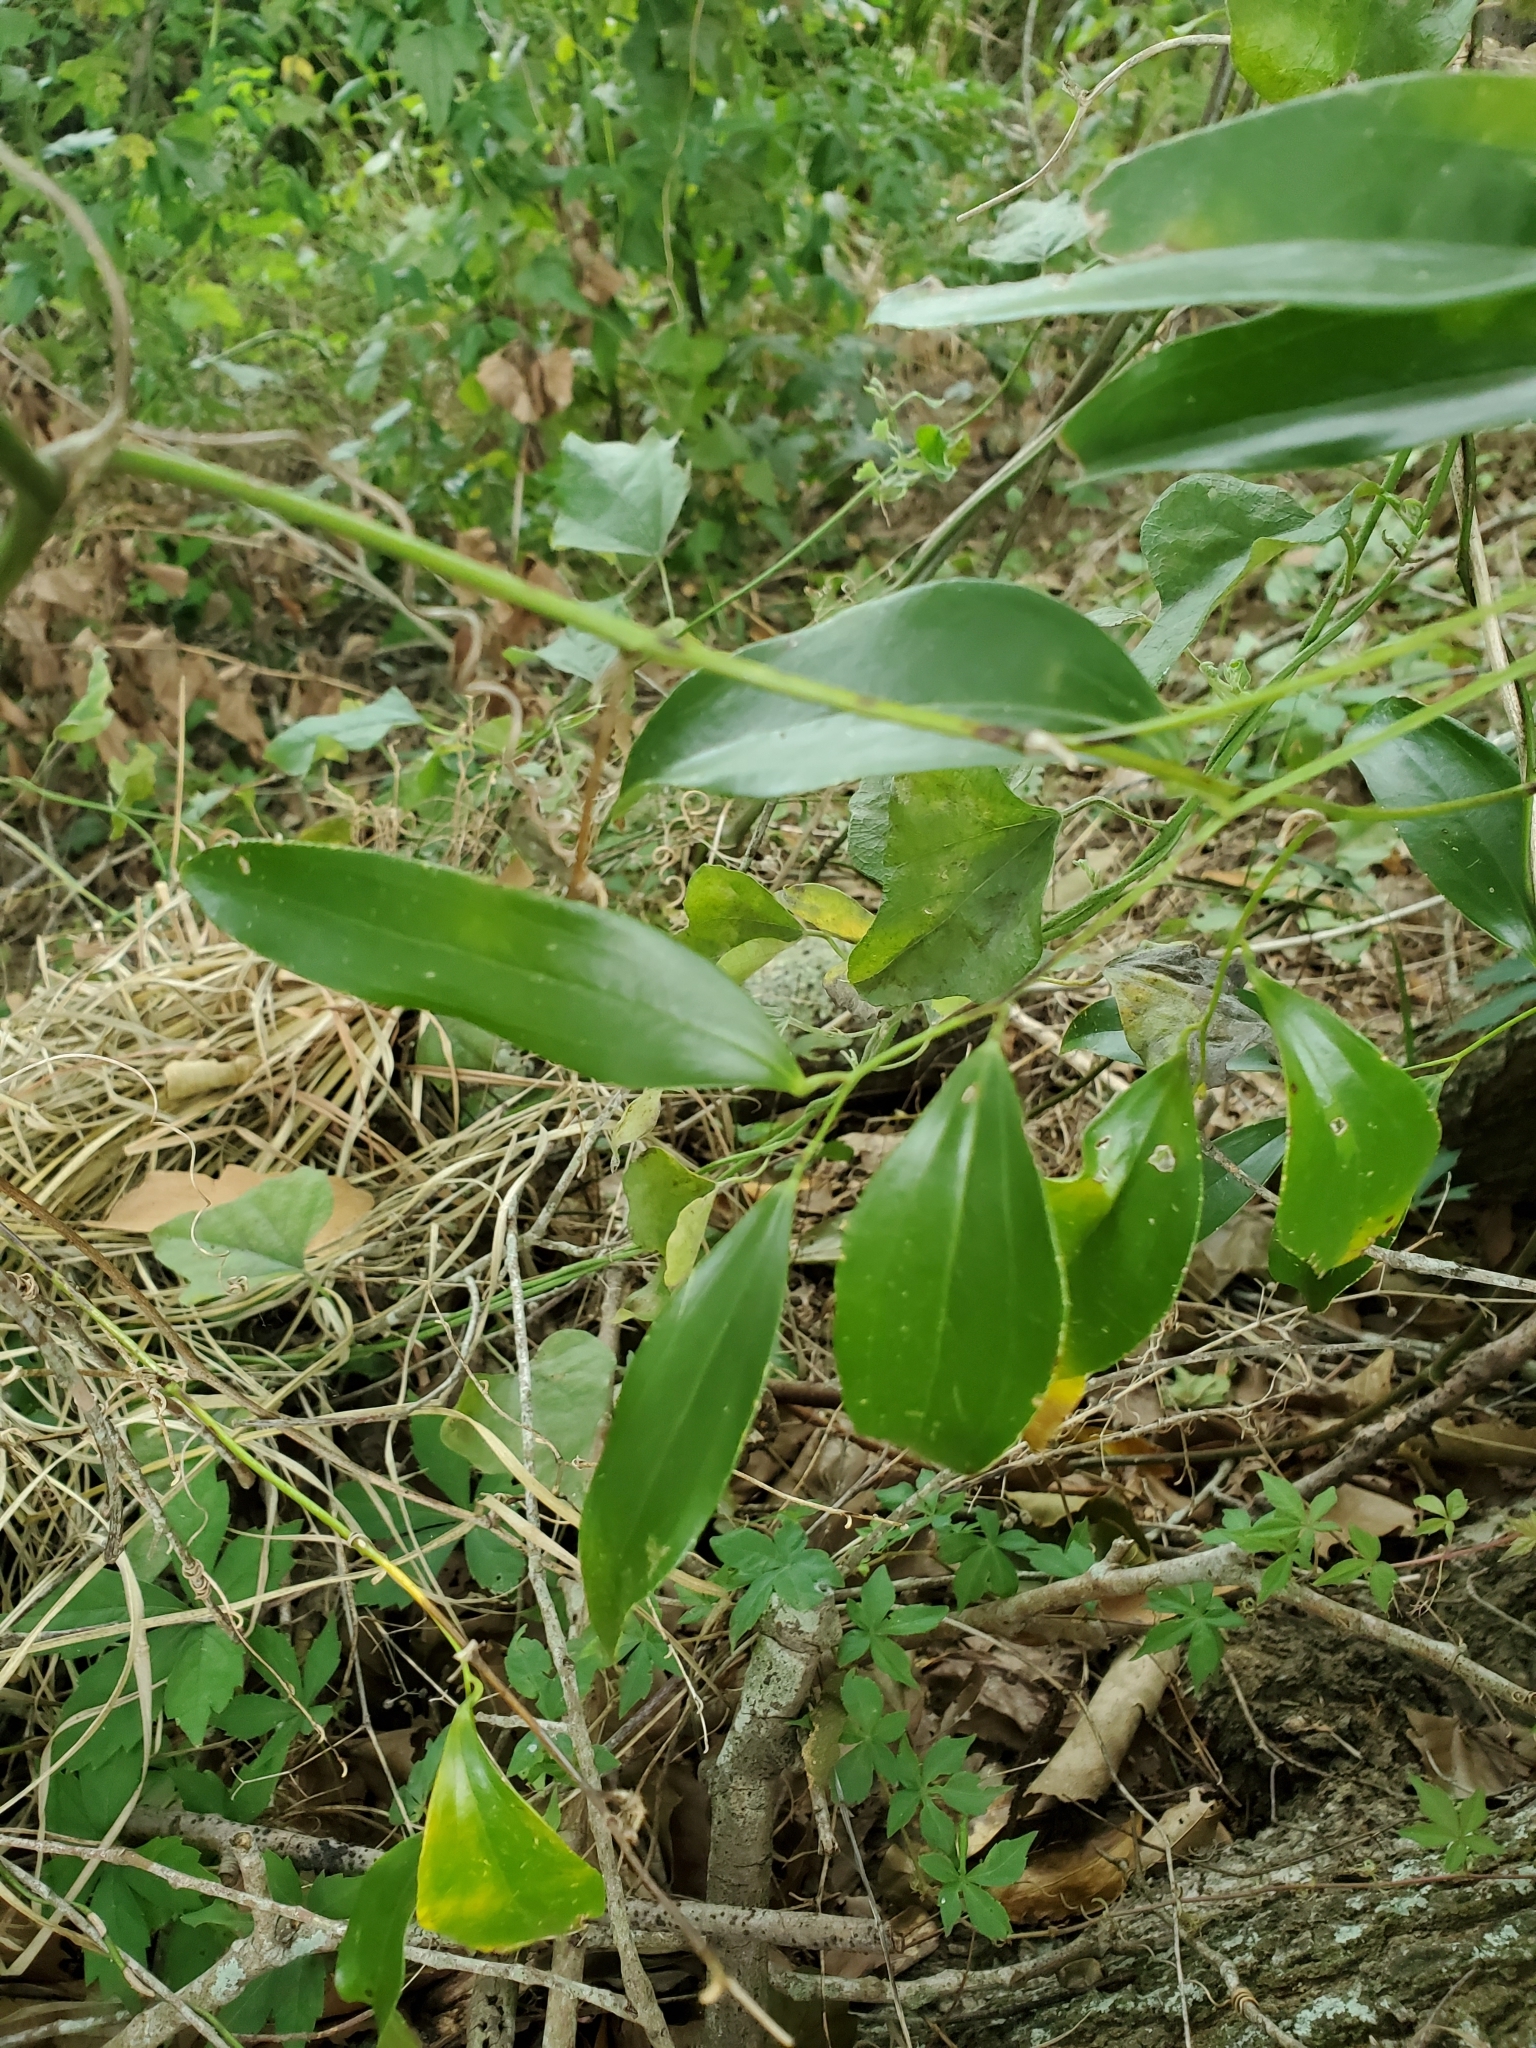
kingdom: Plantae
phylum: Tracheophyta
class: Liliopsida
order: Liliales
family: Smilacaceae
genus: Smilax
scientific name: Smilax laurifolia
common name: Bamboovine
